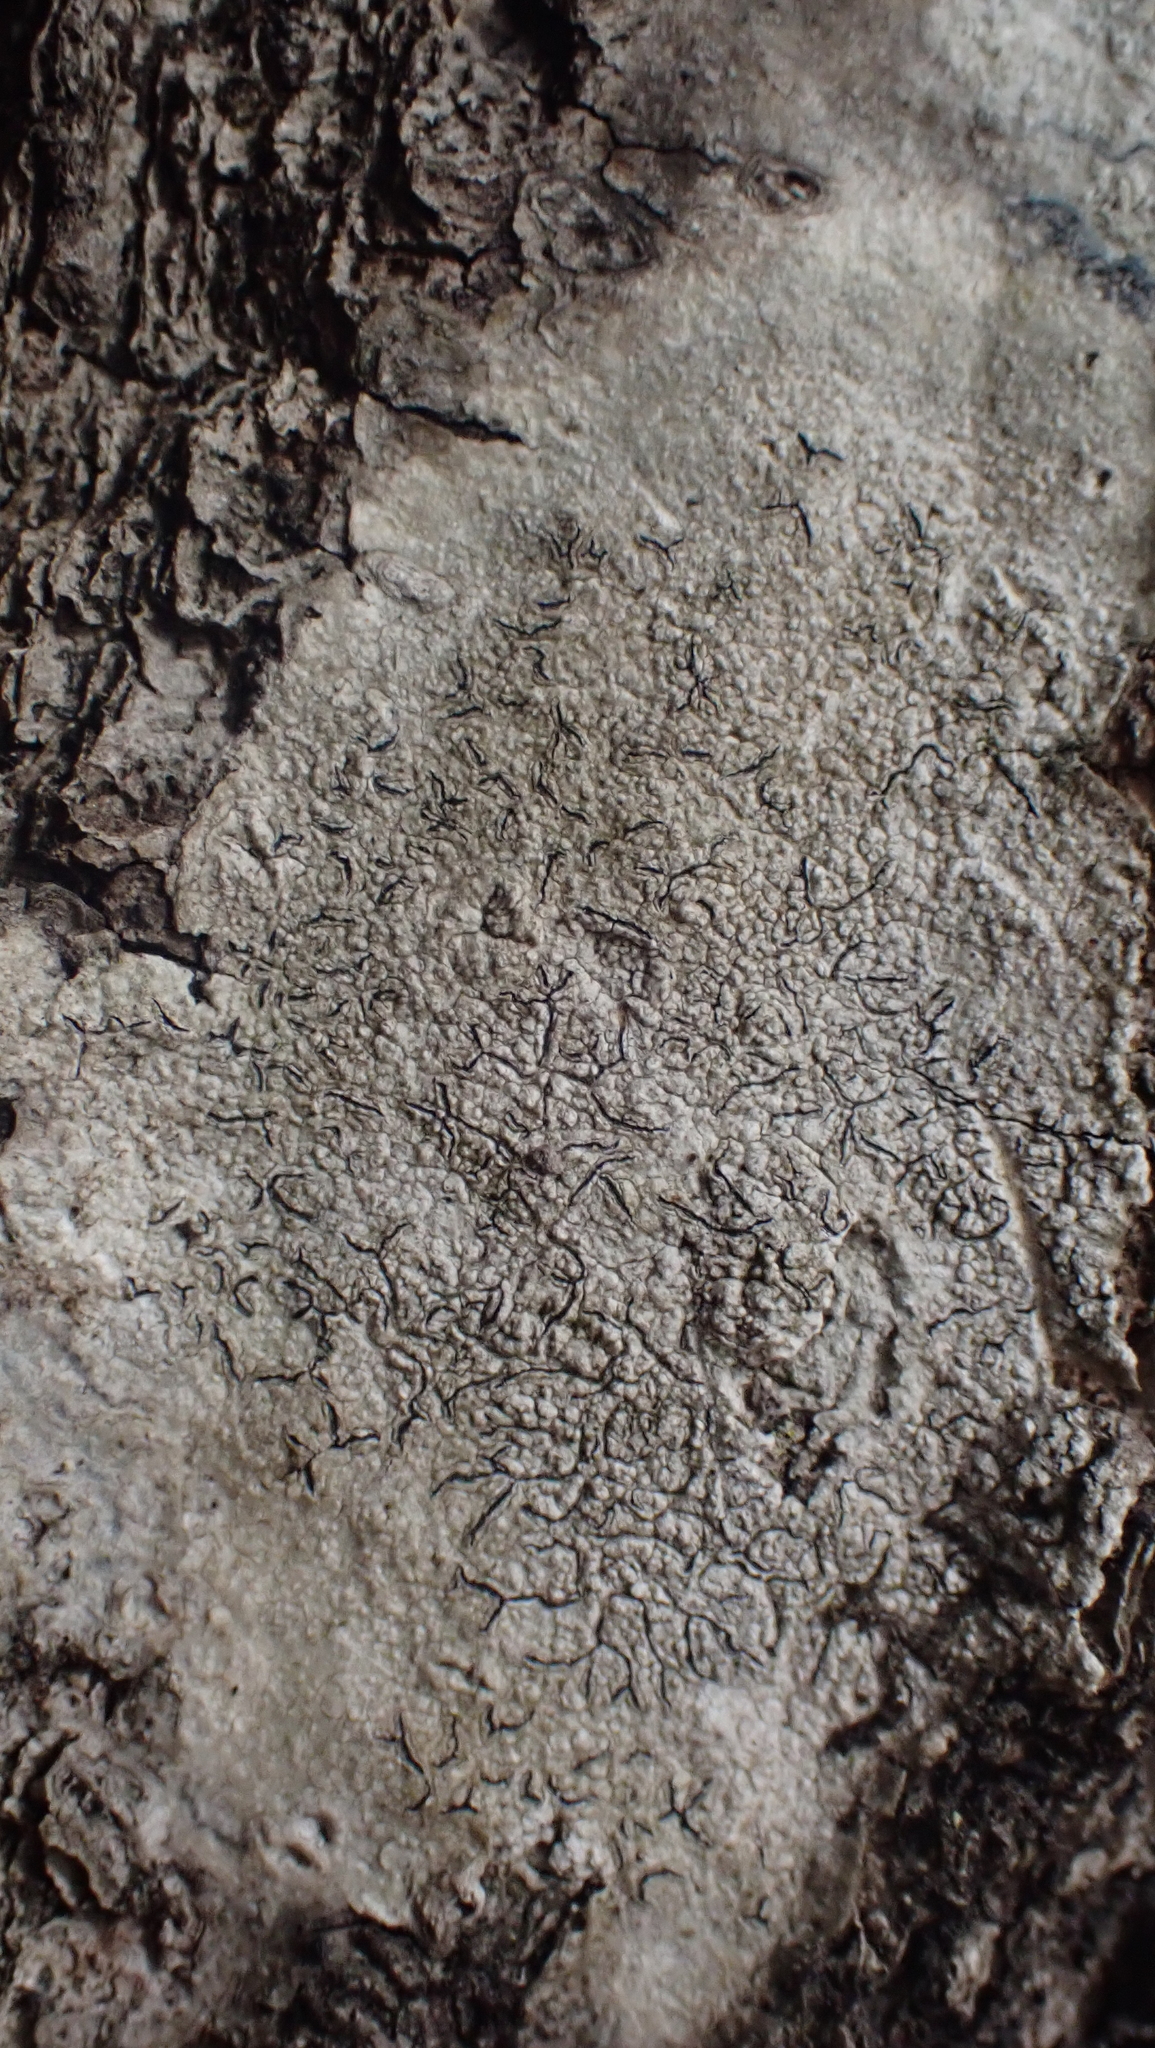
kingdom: Fungi
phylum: Ascomycota
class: Lecanoromycetes
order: Ostropales
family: Graphidaceae
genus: Graphis
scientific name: Graphis scripta
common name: Script lichen
